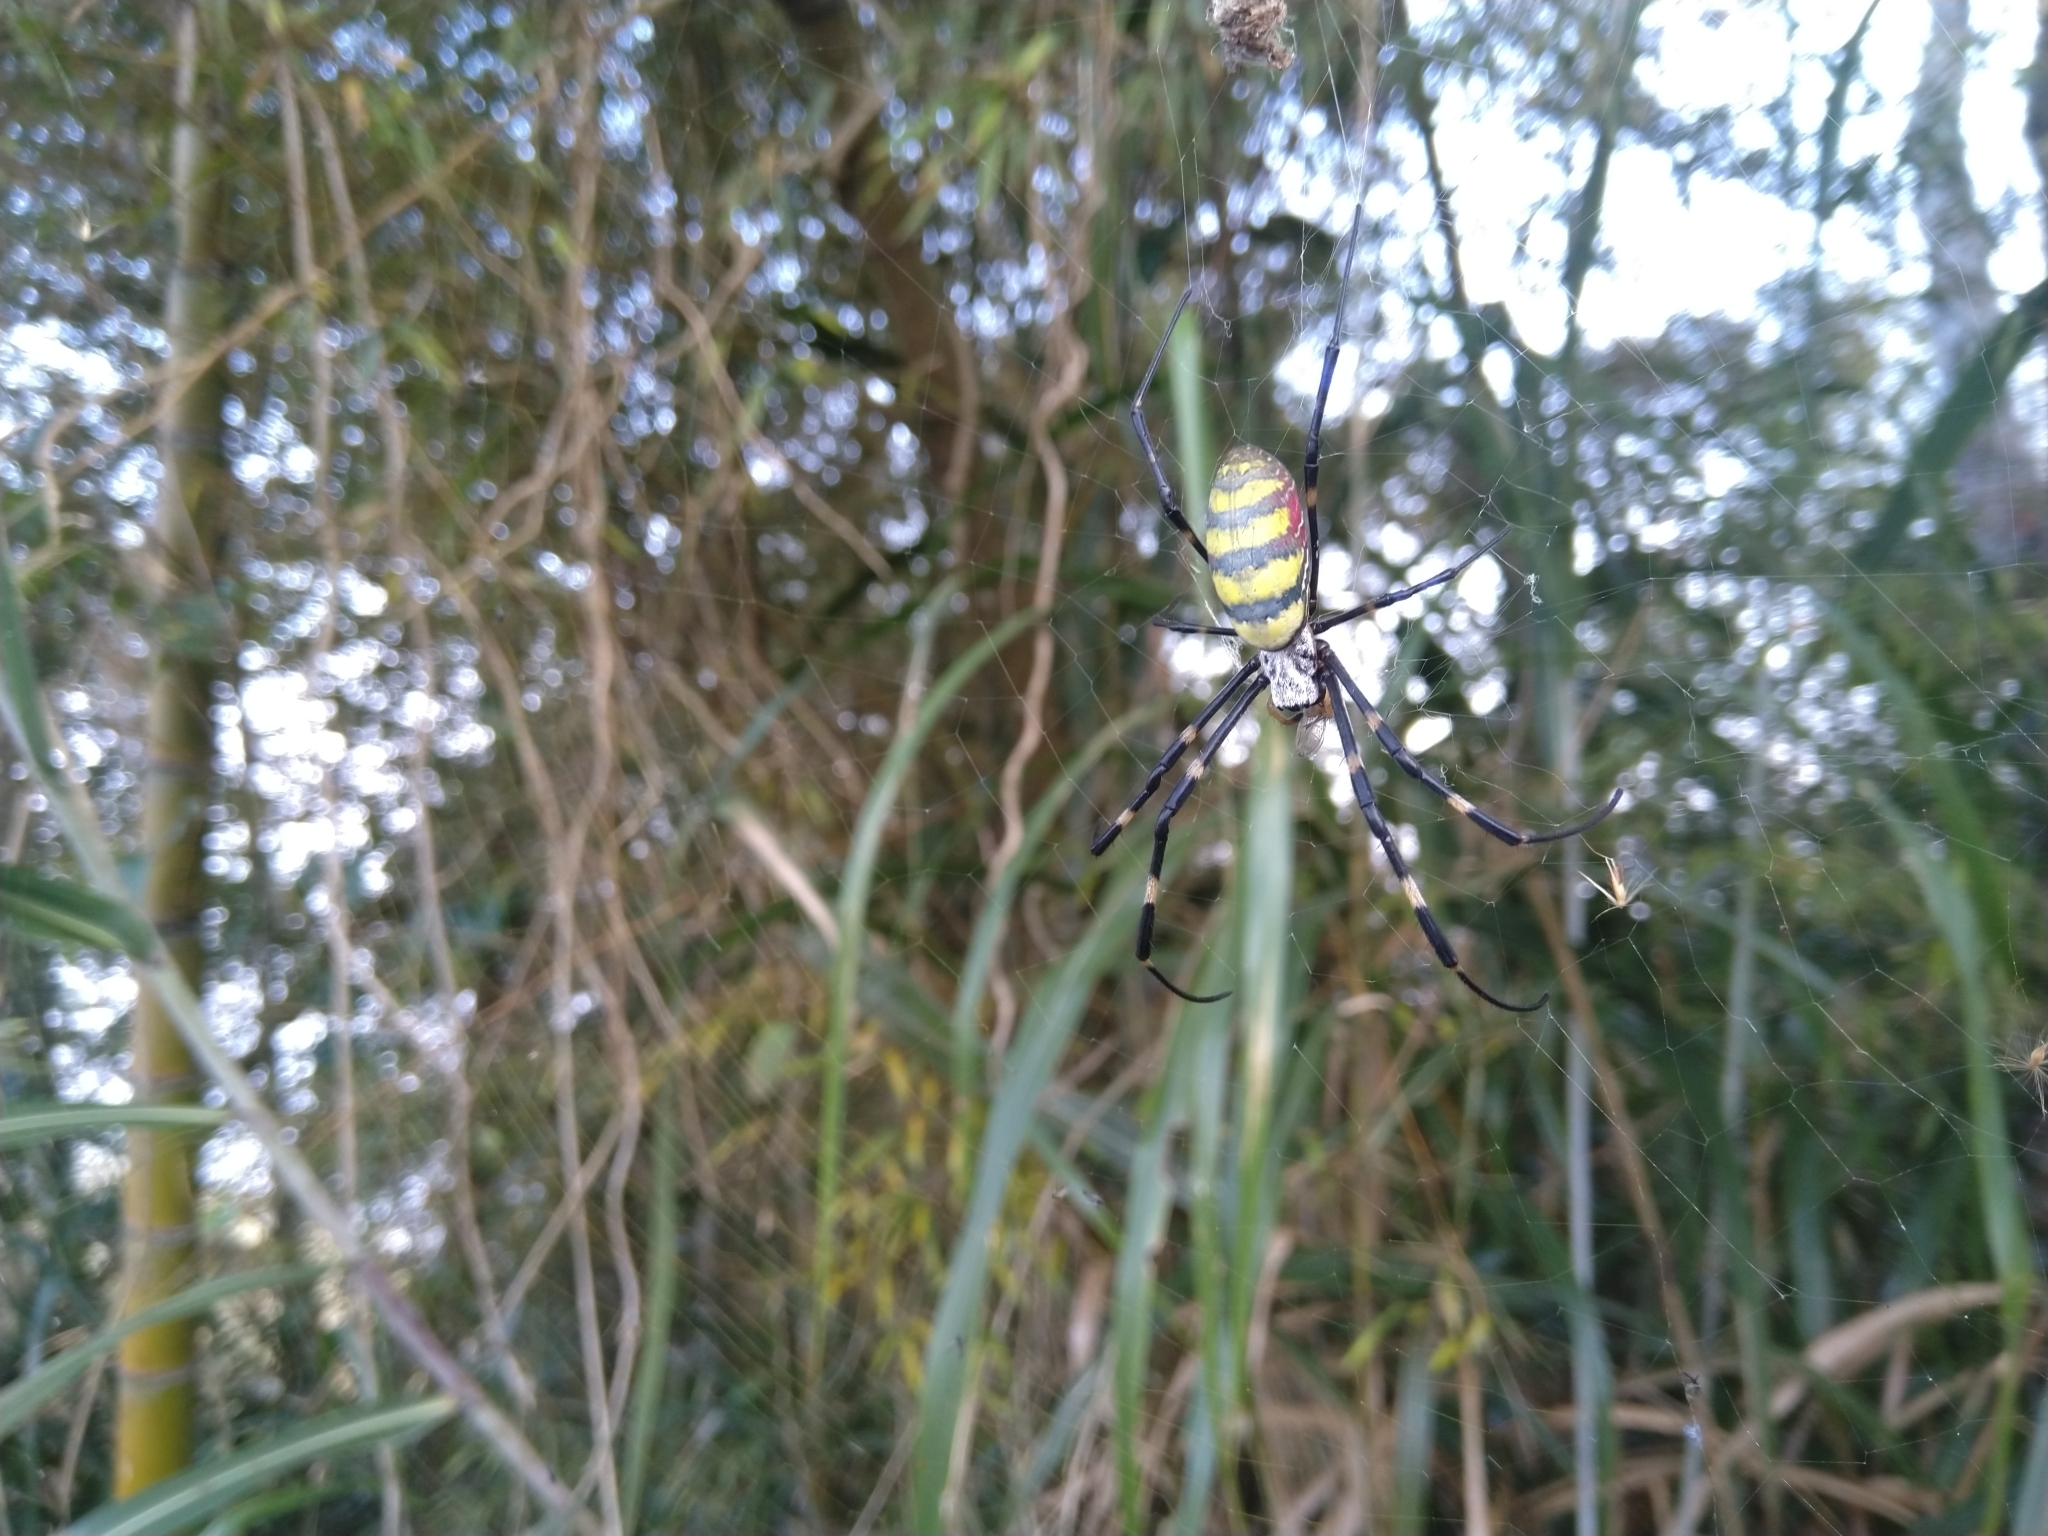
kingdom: Animalia
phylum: Arthropoda
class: Arachnida
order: Araneae
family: Araneidae
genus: Trichonephila
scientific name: Trichonephila clavata
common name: Jorō spider
